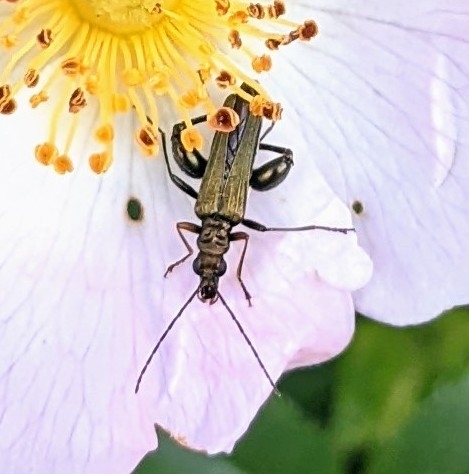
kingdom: Animalia
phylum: Arthropoda
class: Insecta
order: Coleoptera
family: Oedemeridae
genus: Oedemera
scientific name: Oedemera flavipes
